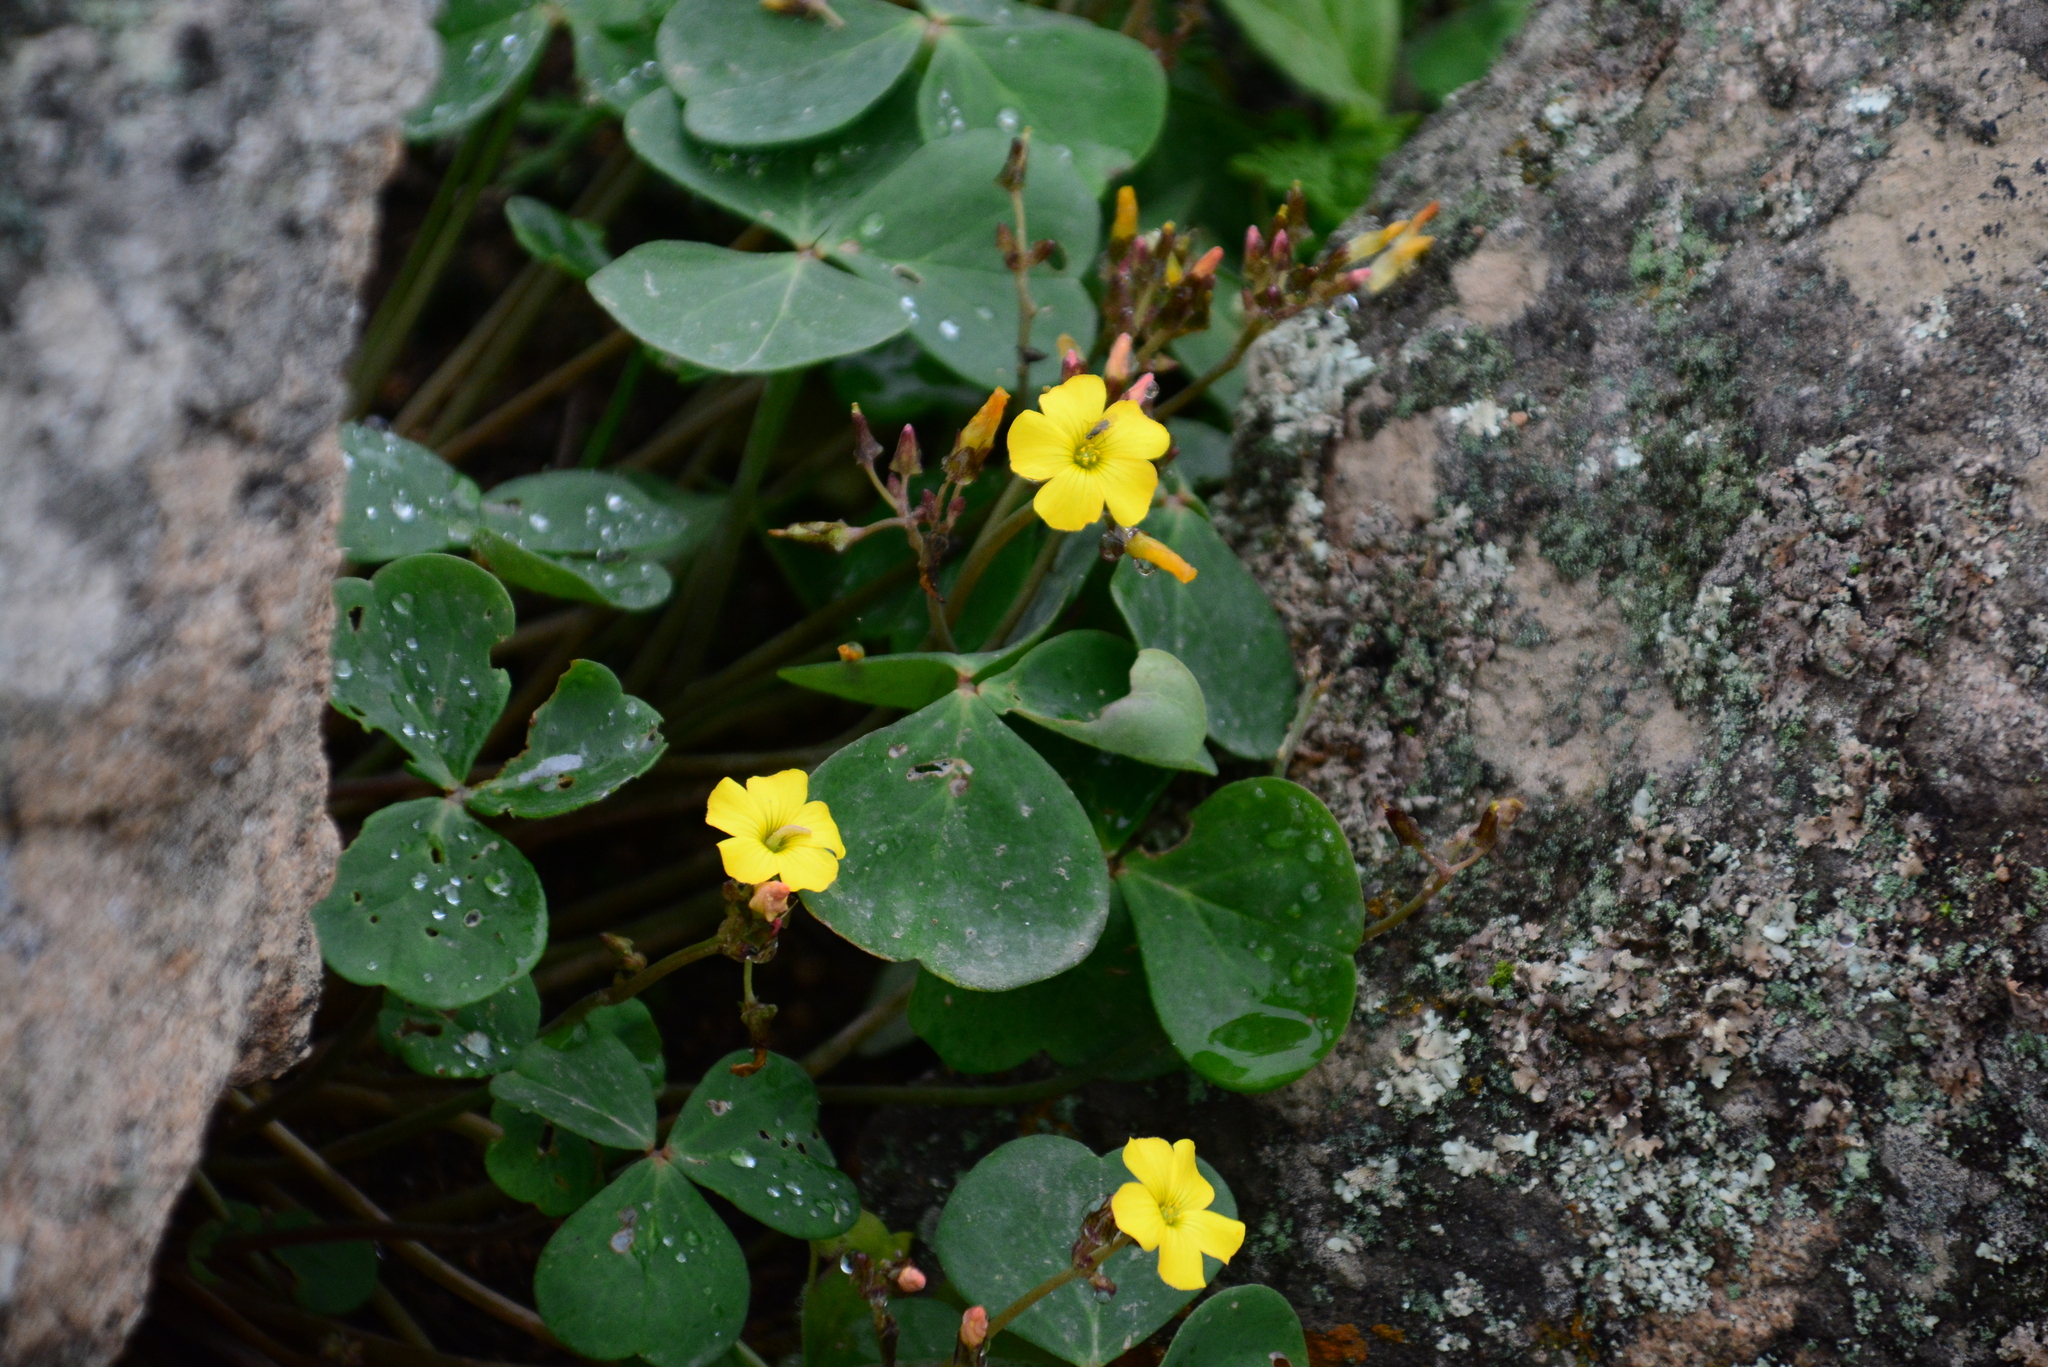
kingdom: Plantae
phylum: Tracheophyta
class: Magnoliopsida
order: Oxalidales
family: Oxalidaceae
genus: Oxalis
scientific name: Oxalis megalorrhiza
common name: Fleshy yellow-sorrel
